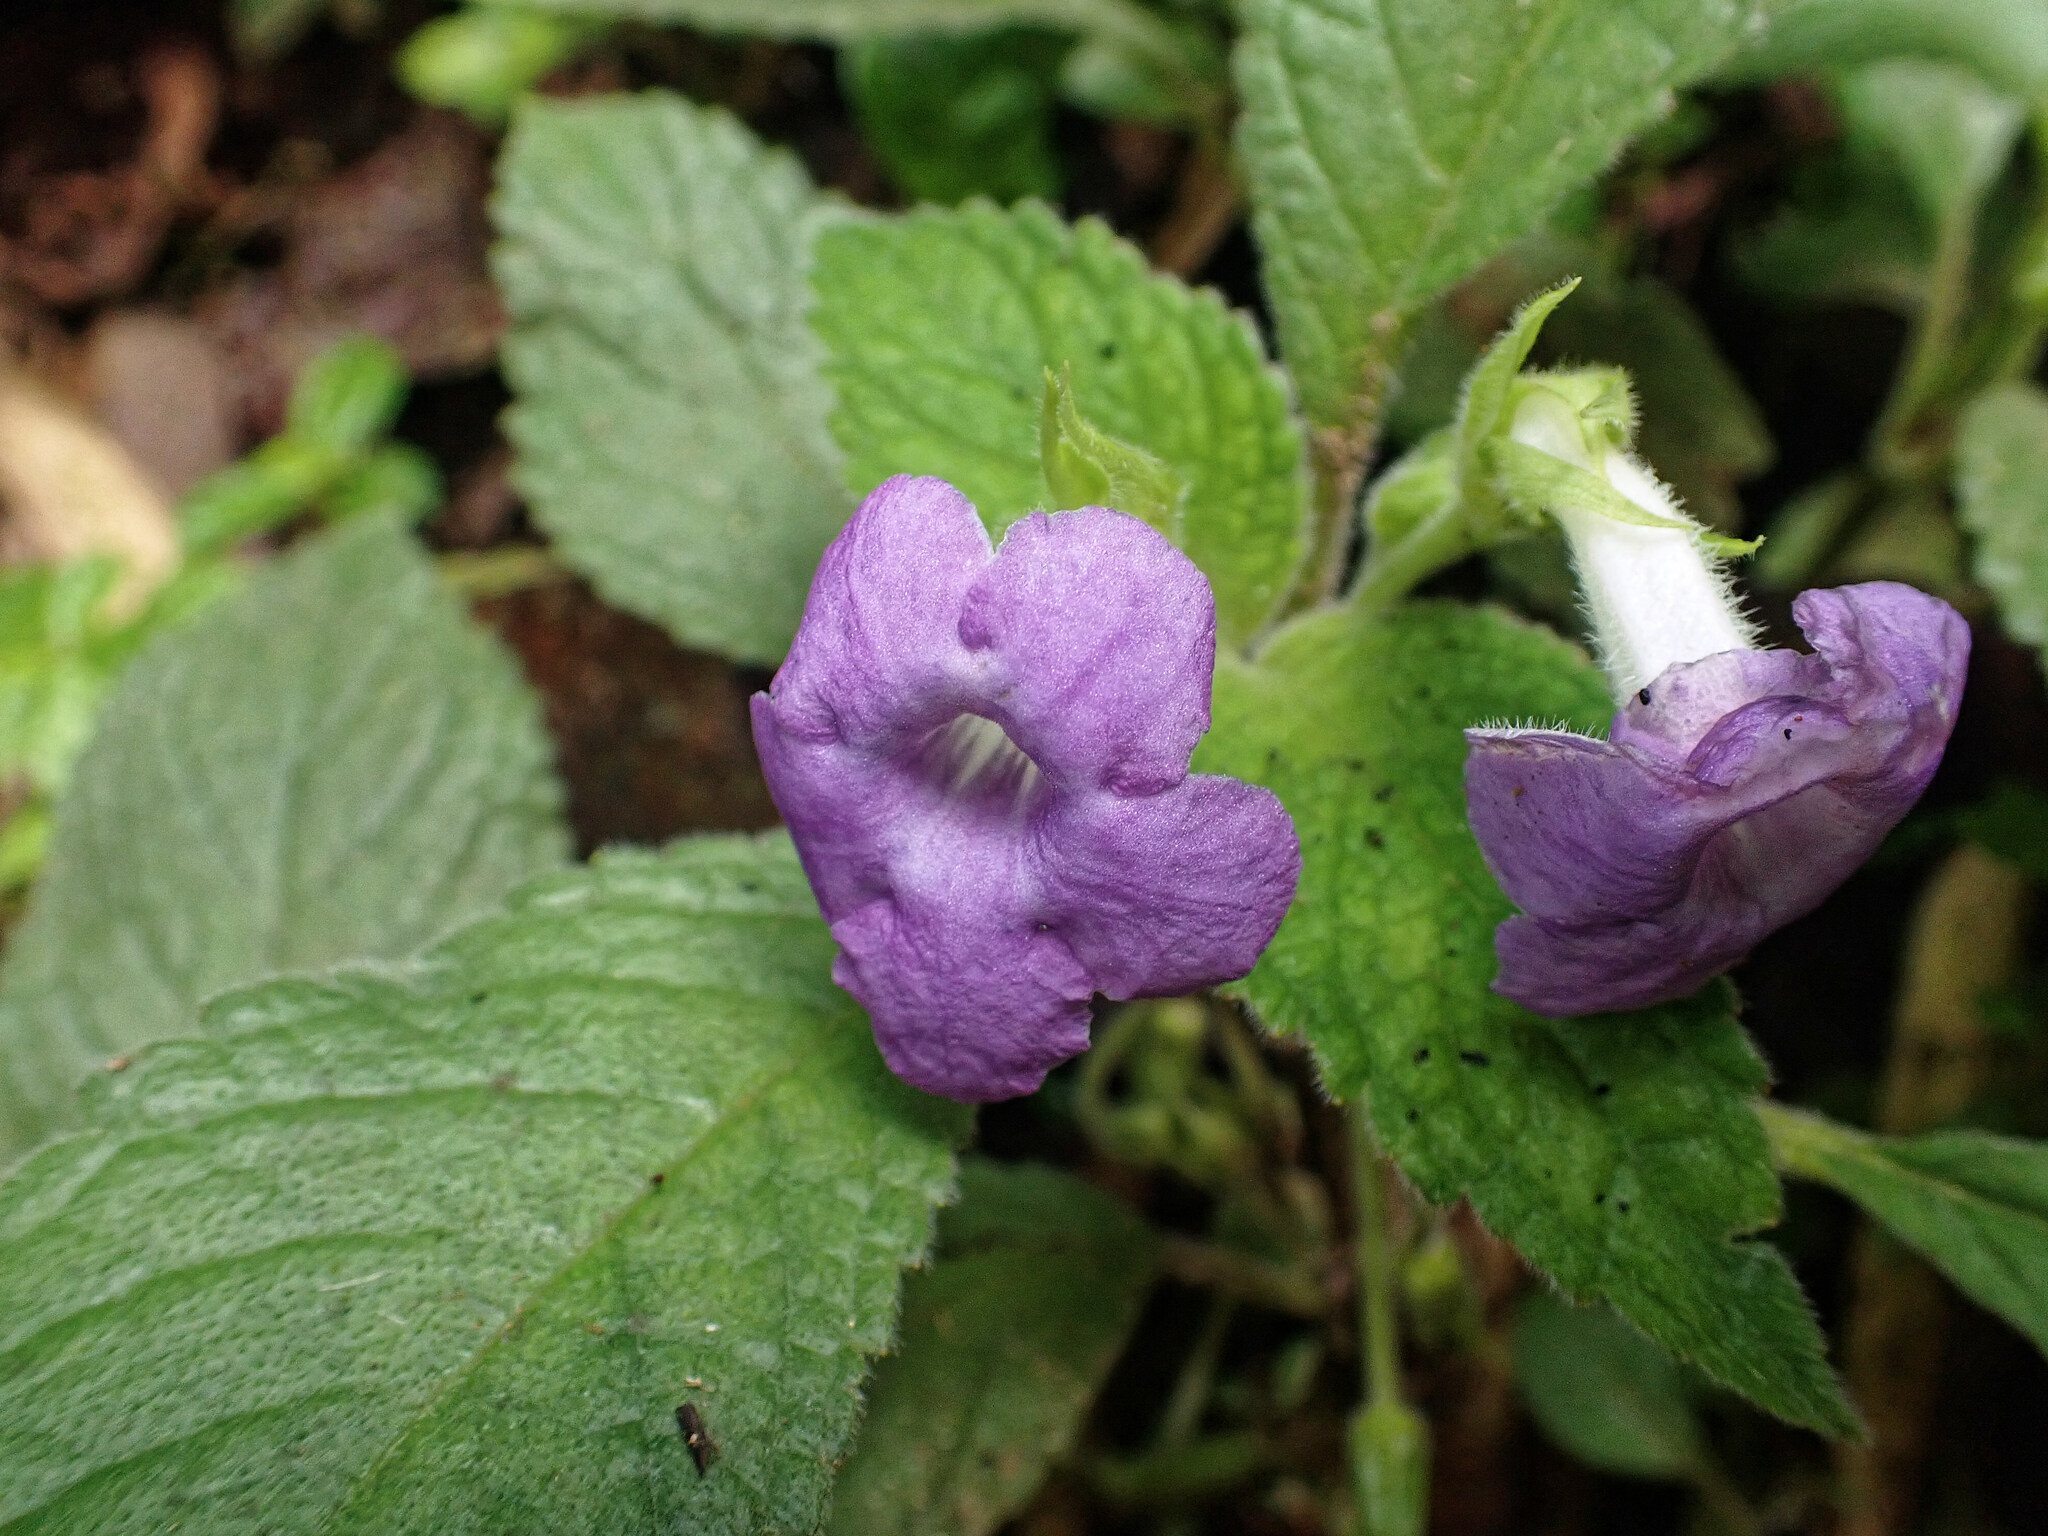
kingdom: Plantae
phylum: Tracheophyta
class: Magnoliopsida
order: Lamiales
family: Gesneriaceae
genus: Chrysothemis
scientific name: Chrysothemis melittifolia
